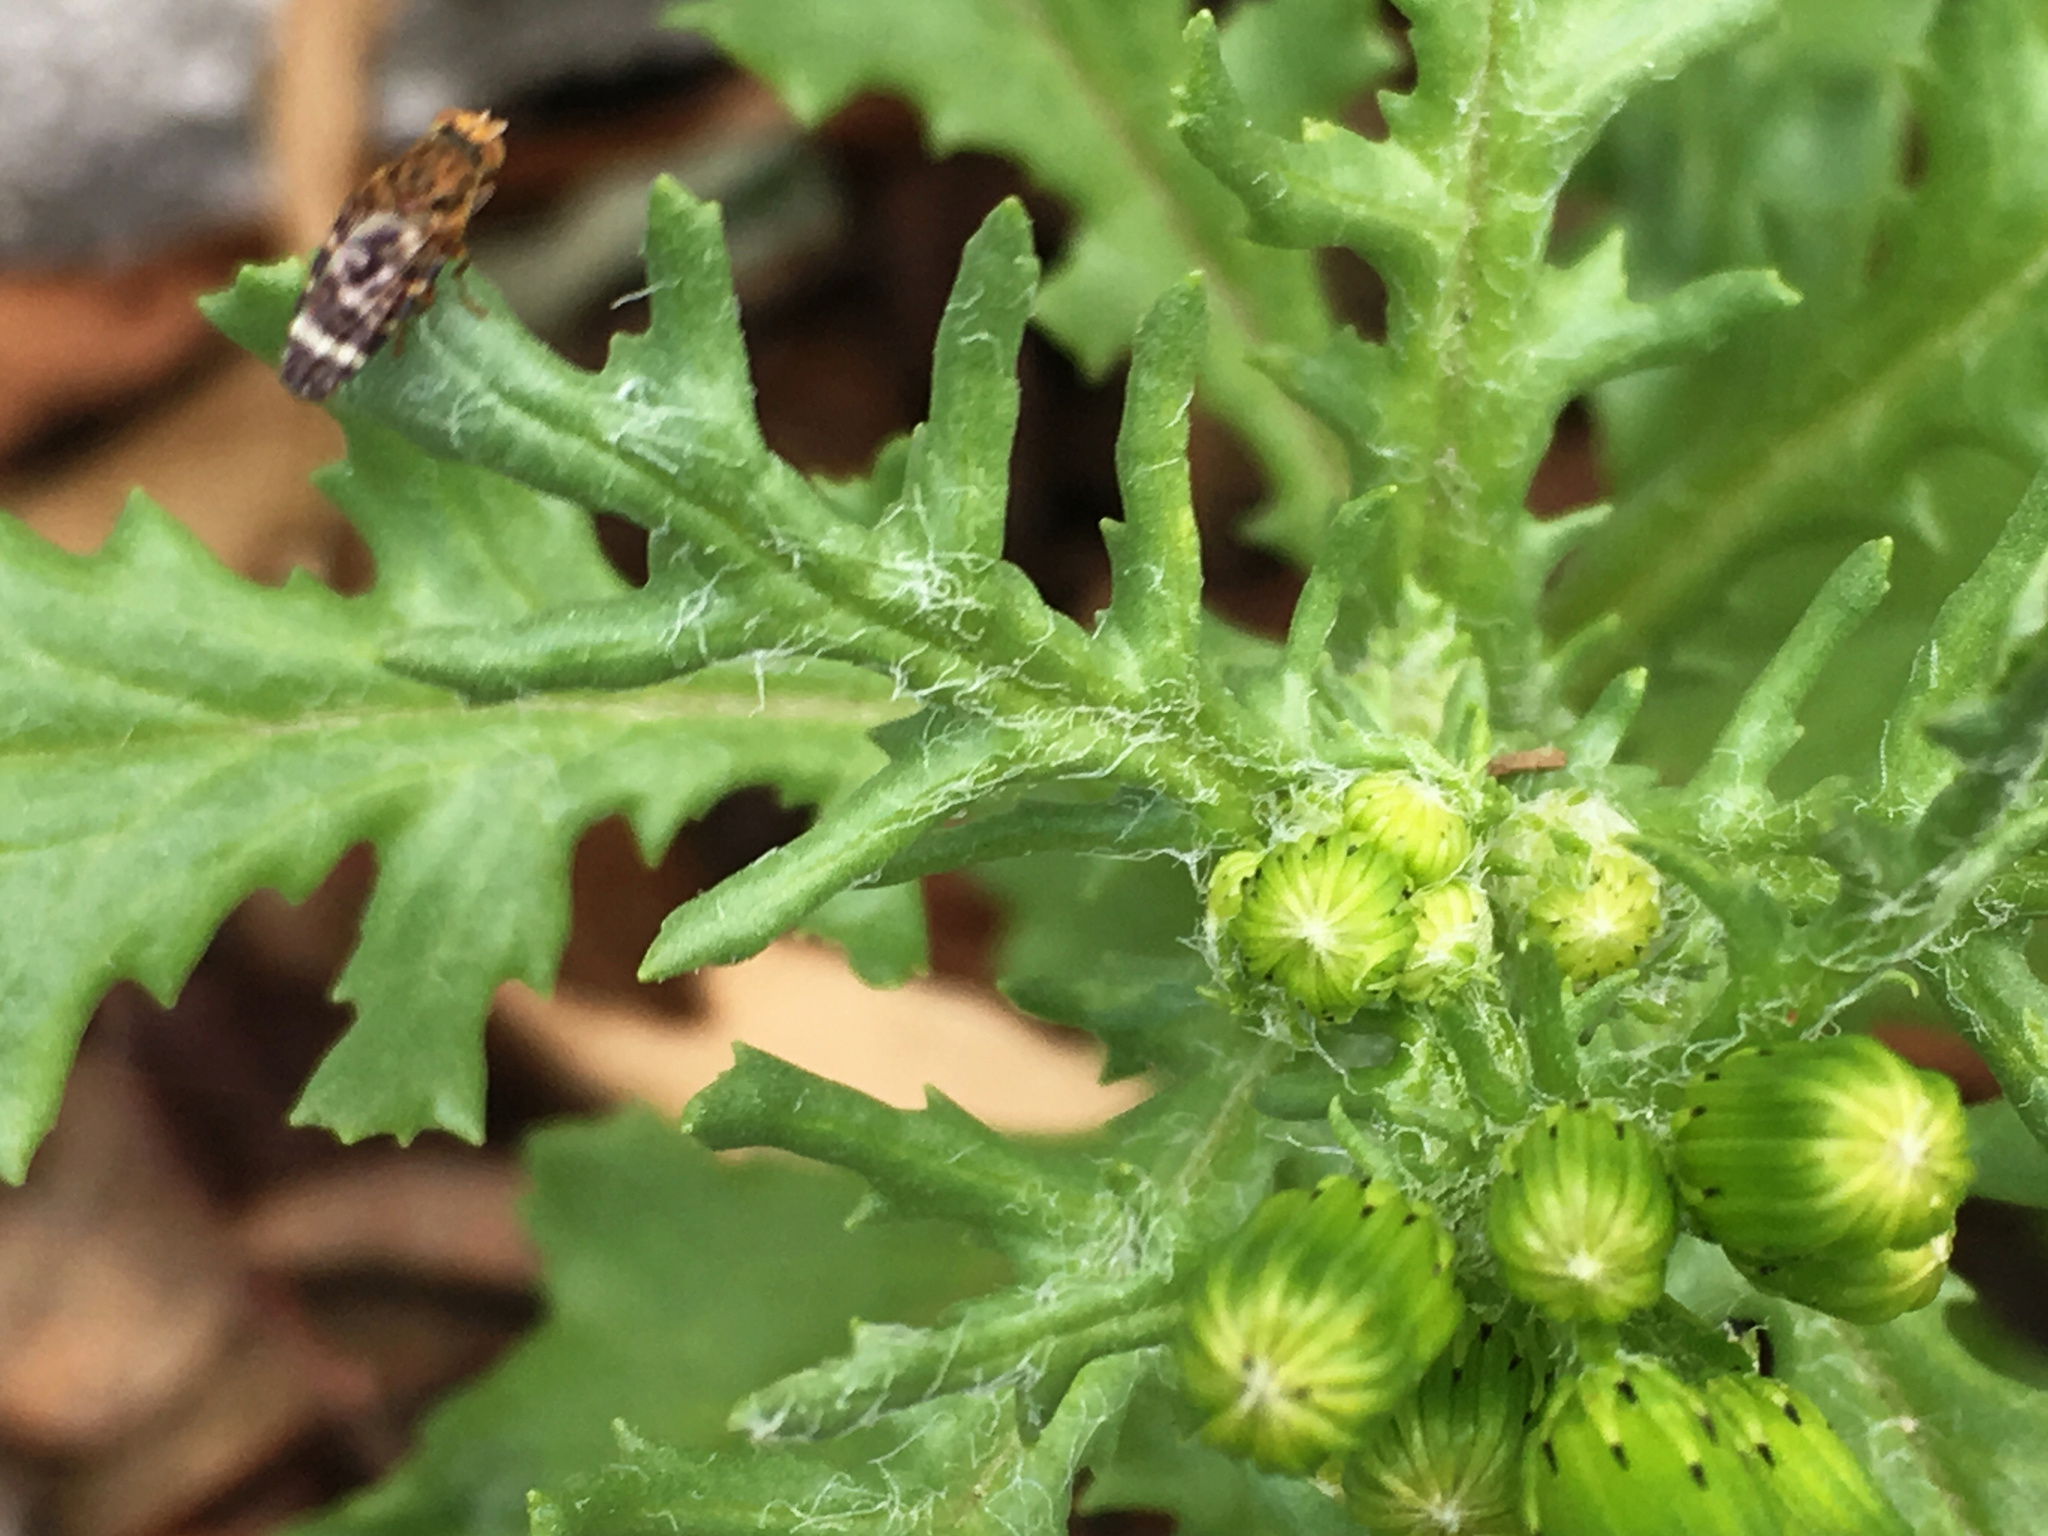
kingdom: Animalia
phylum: Arthropoda
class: Insecta
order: Diptera
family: Tephritidae
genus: Sphenella
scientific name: Sphenella
